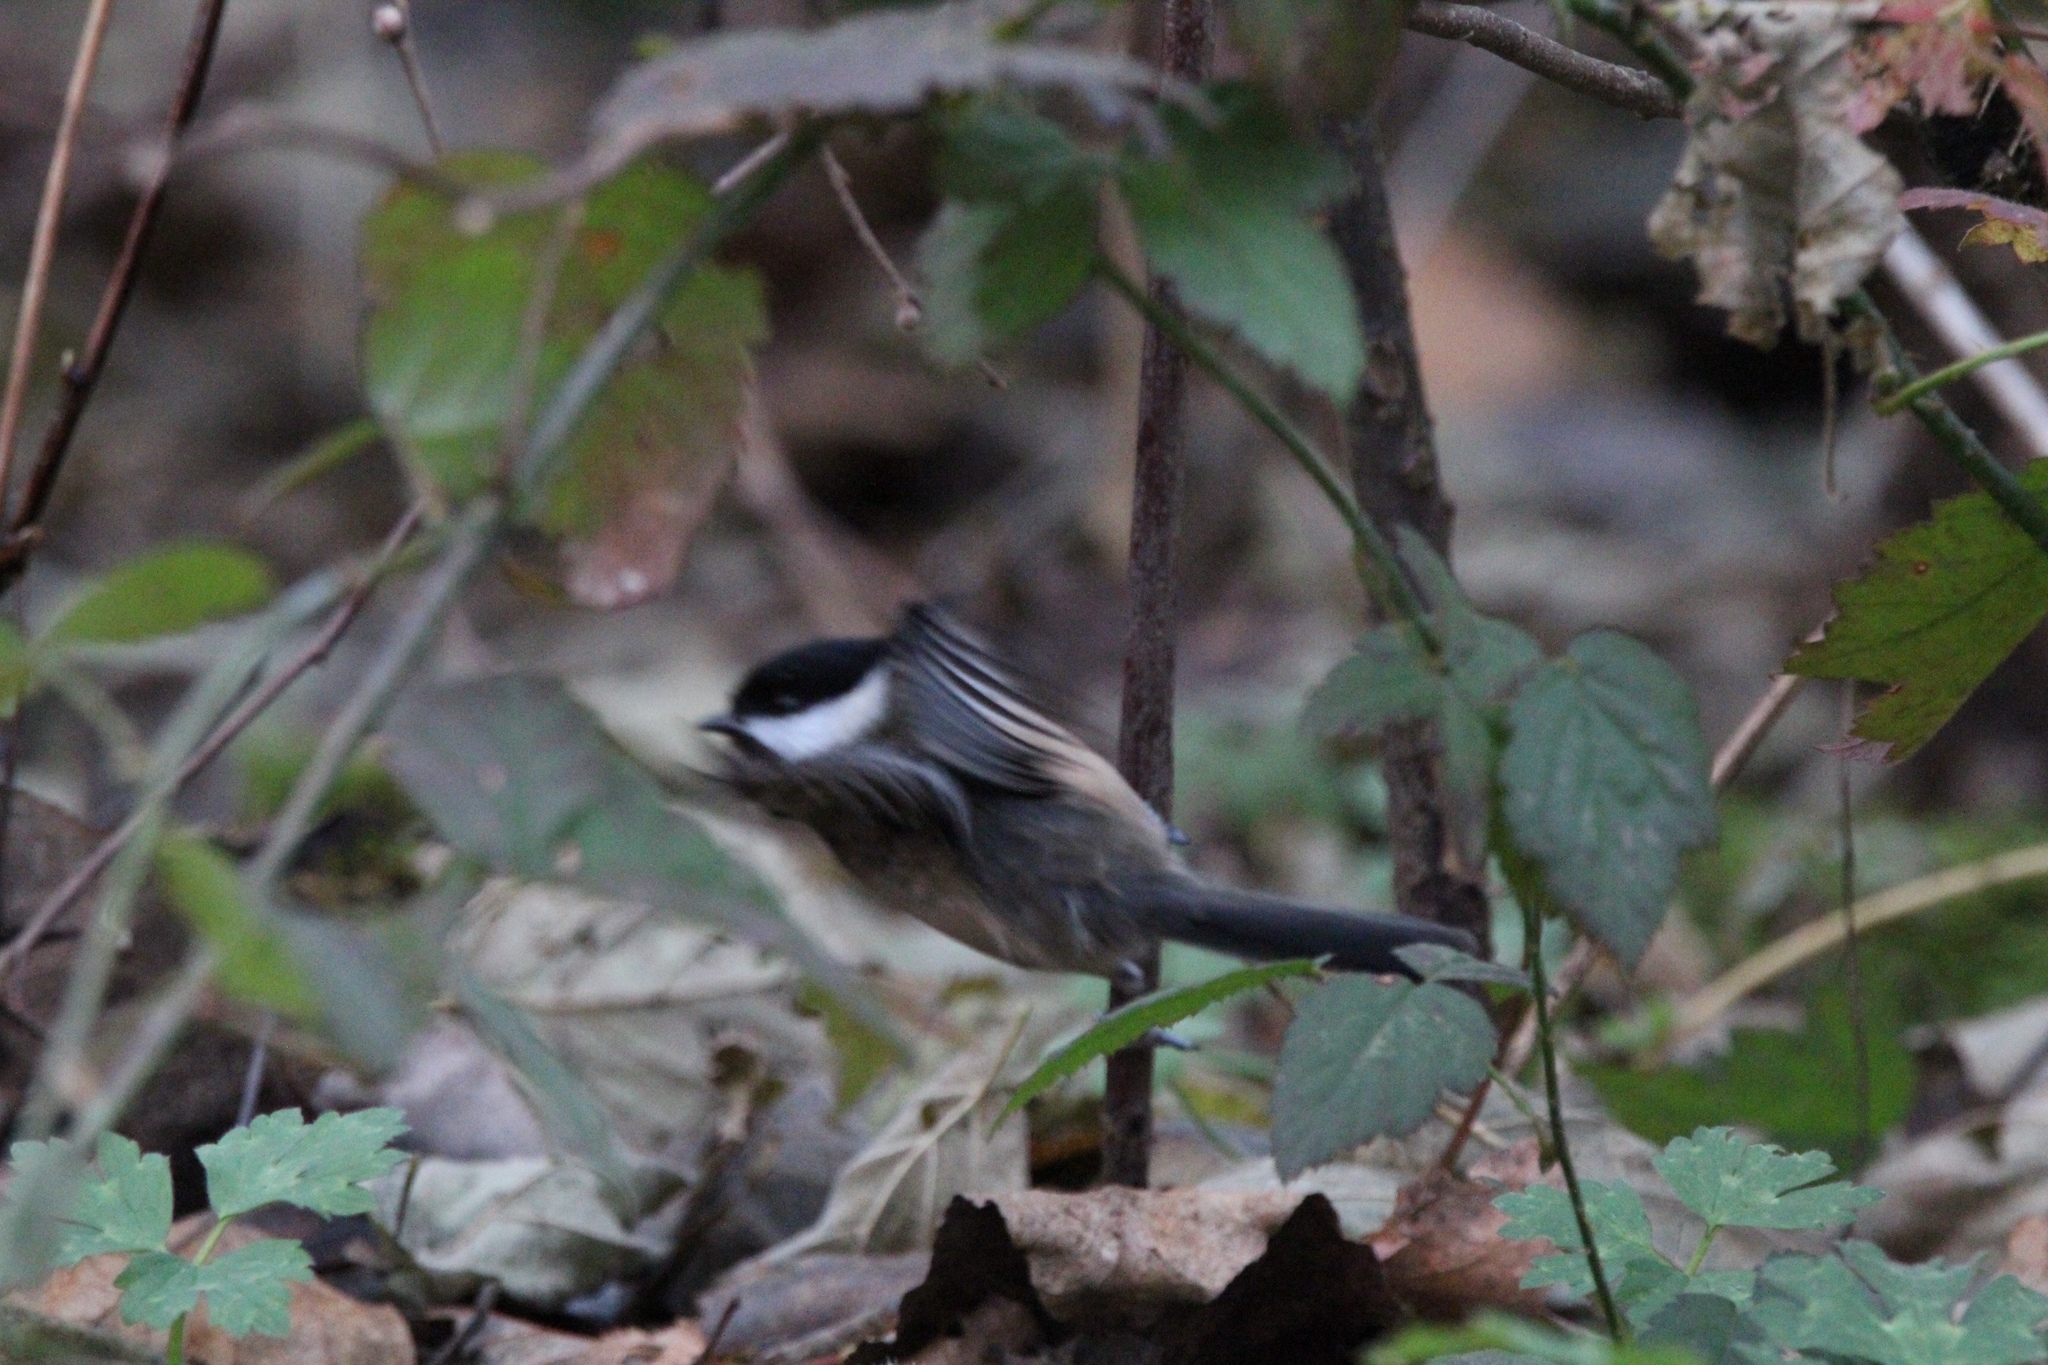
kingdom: Animalia
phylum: Chordata
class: Aves
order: Passeriformes
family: Paridae
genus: Poecile
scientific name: Poecile atricapillus
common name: Black-capped chickadee
